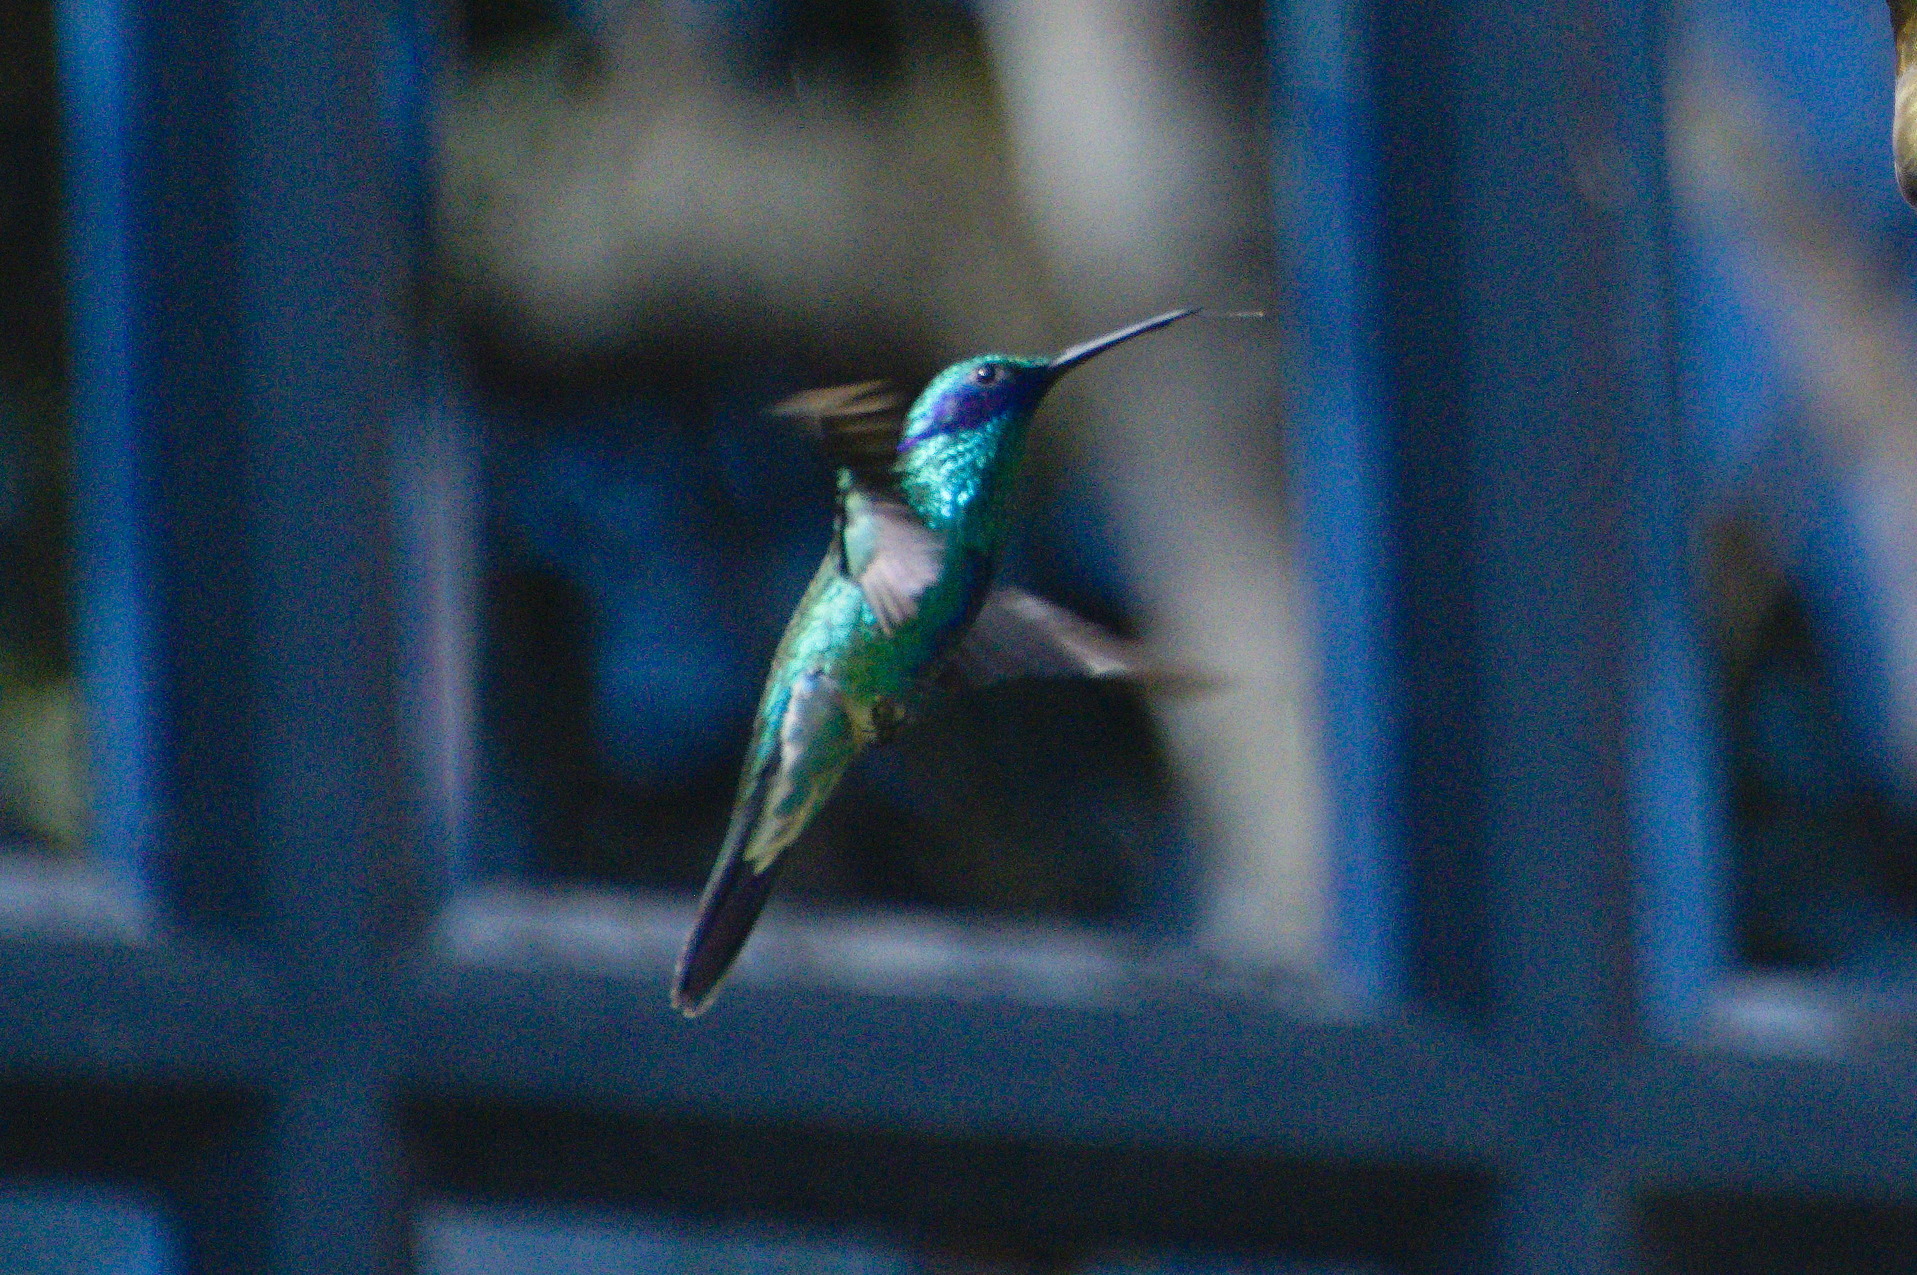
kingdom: Animalia
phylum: Chordata
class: Aves
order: Apodiformes
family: Trochilidae
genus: Colibri
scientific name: Colibri coruscans
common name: Sparkling violetear
